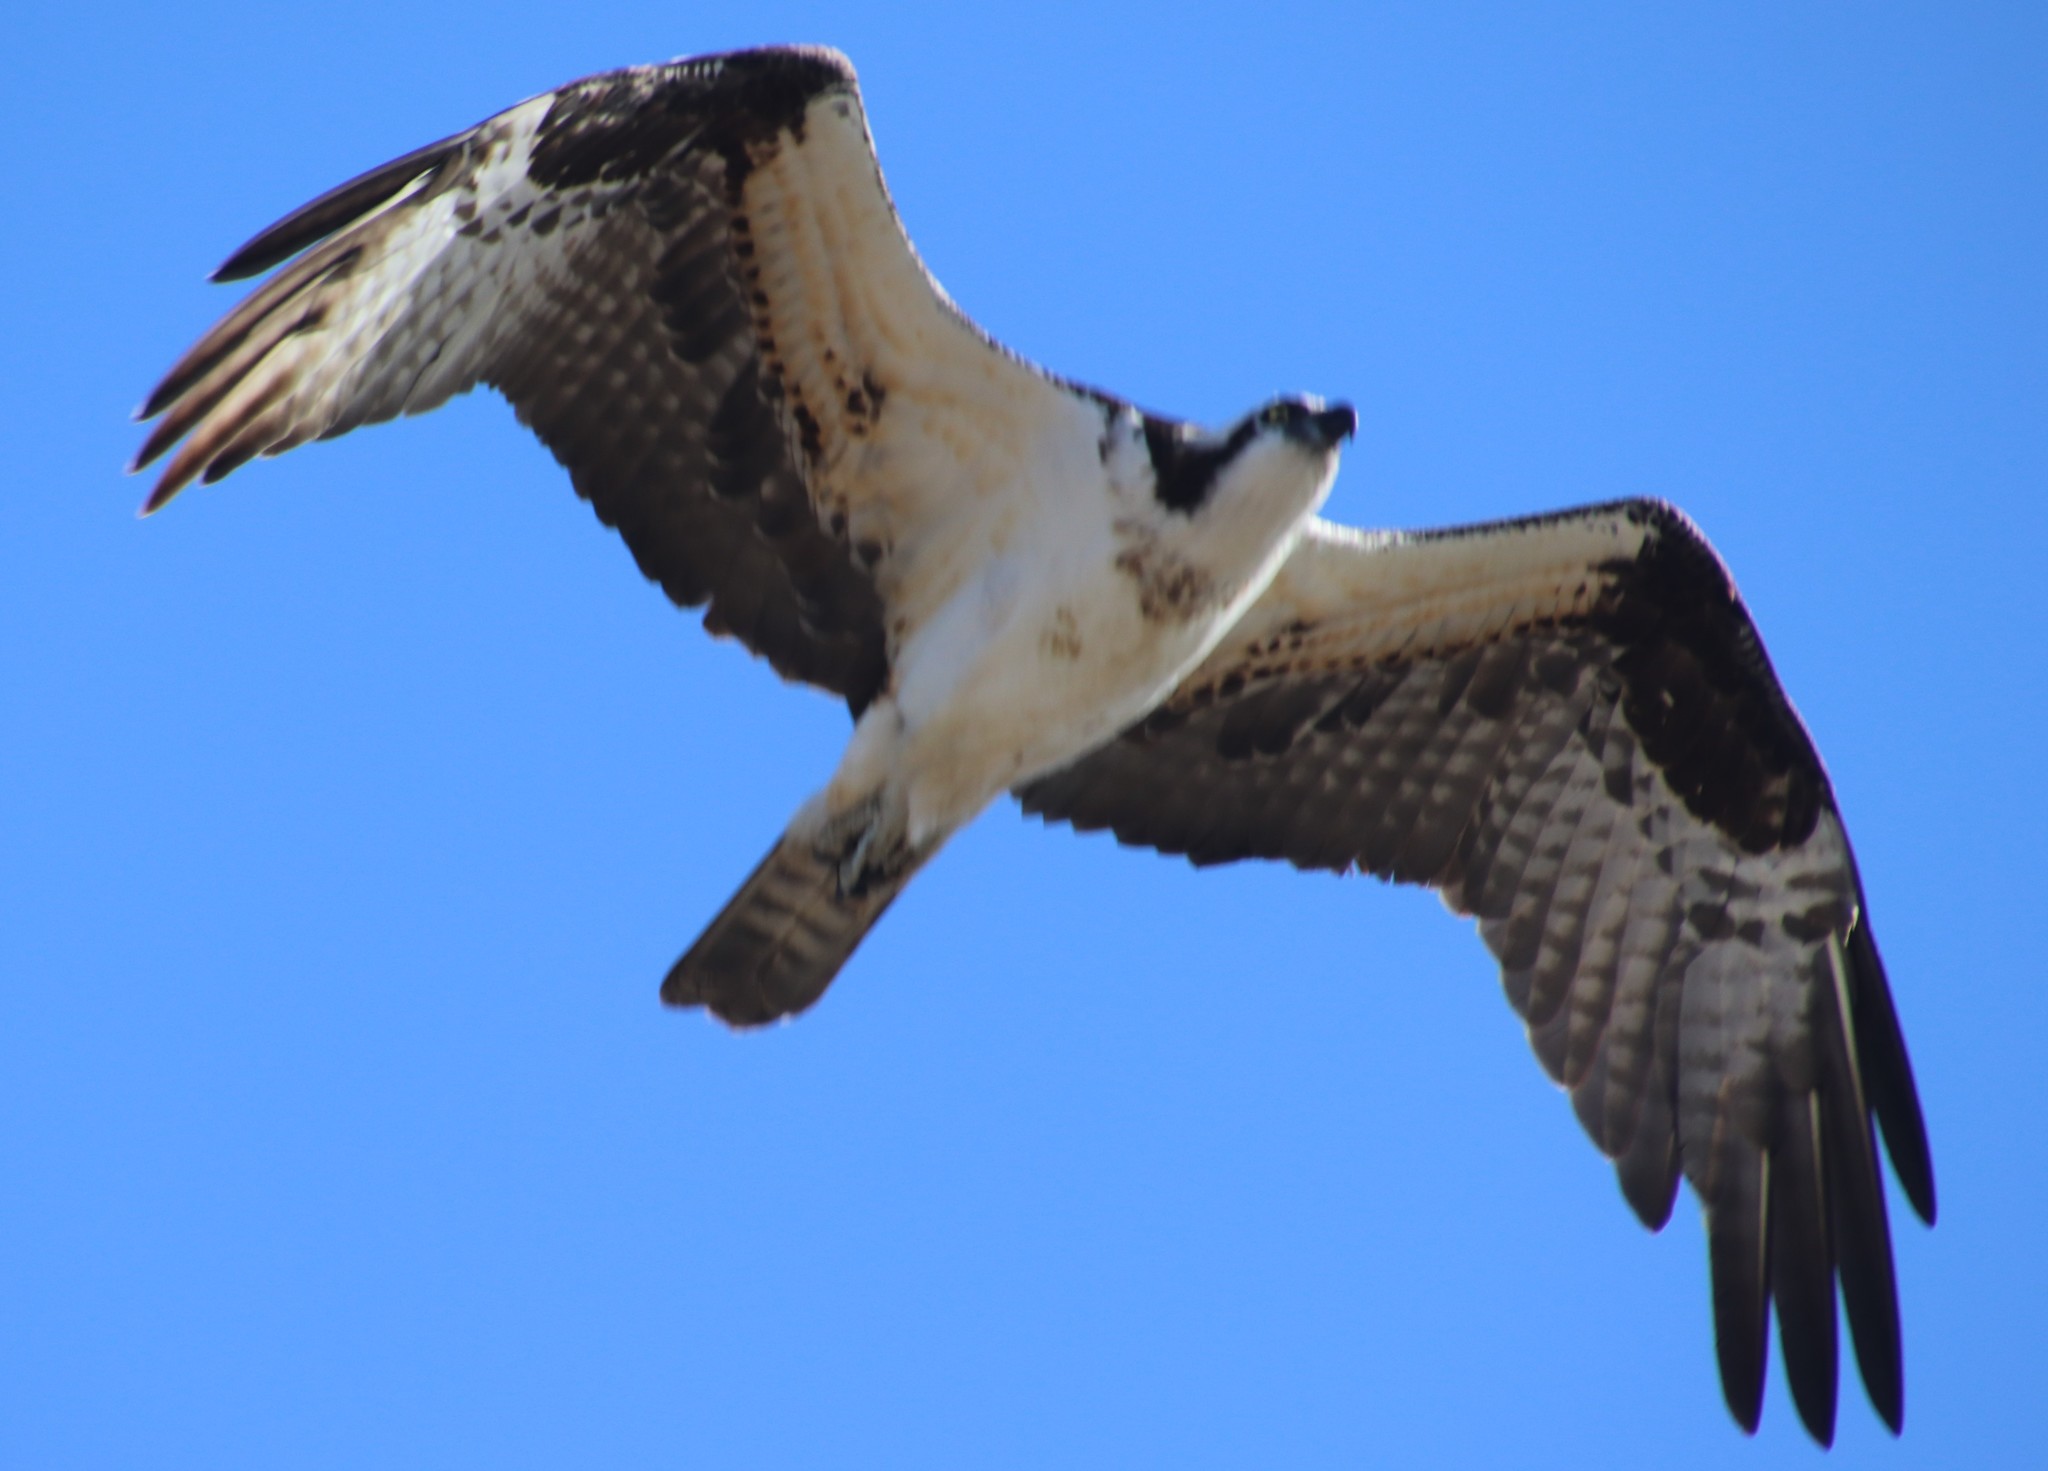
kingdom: Animalia
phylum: Chordata
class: Aves
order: Accipitriformes
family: Pandionidae
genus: Pandion
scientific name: Pandion haliaetus
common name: Osprey
